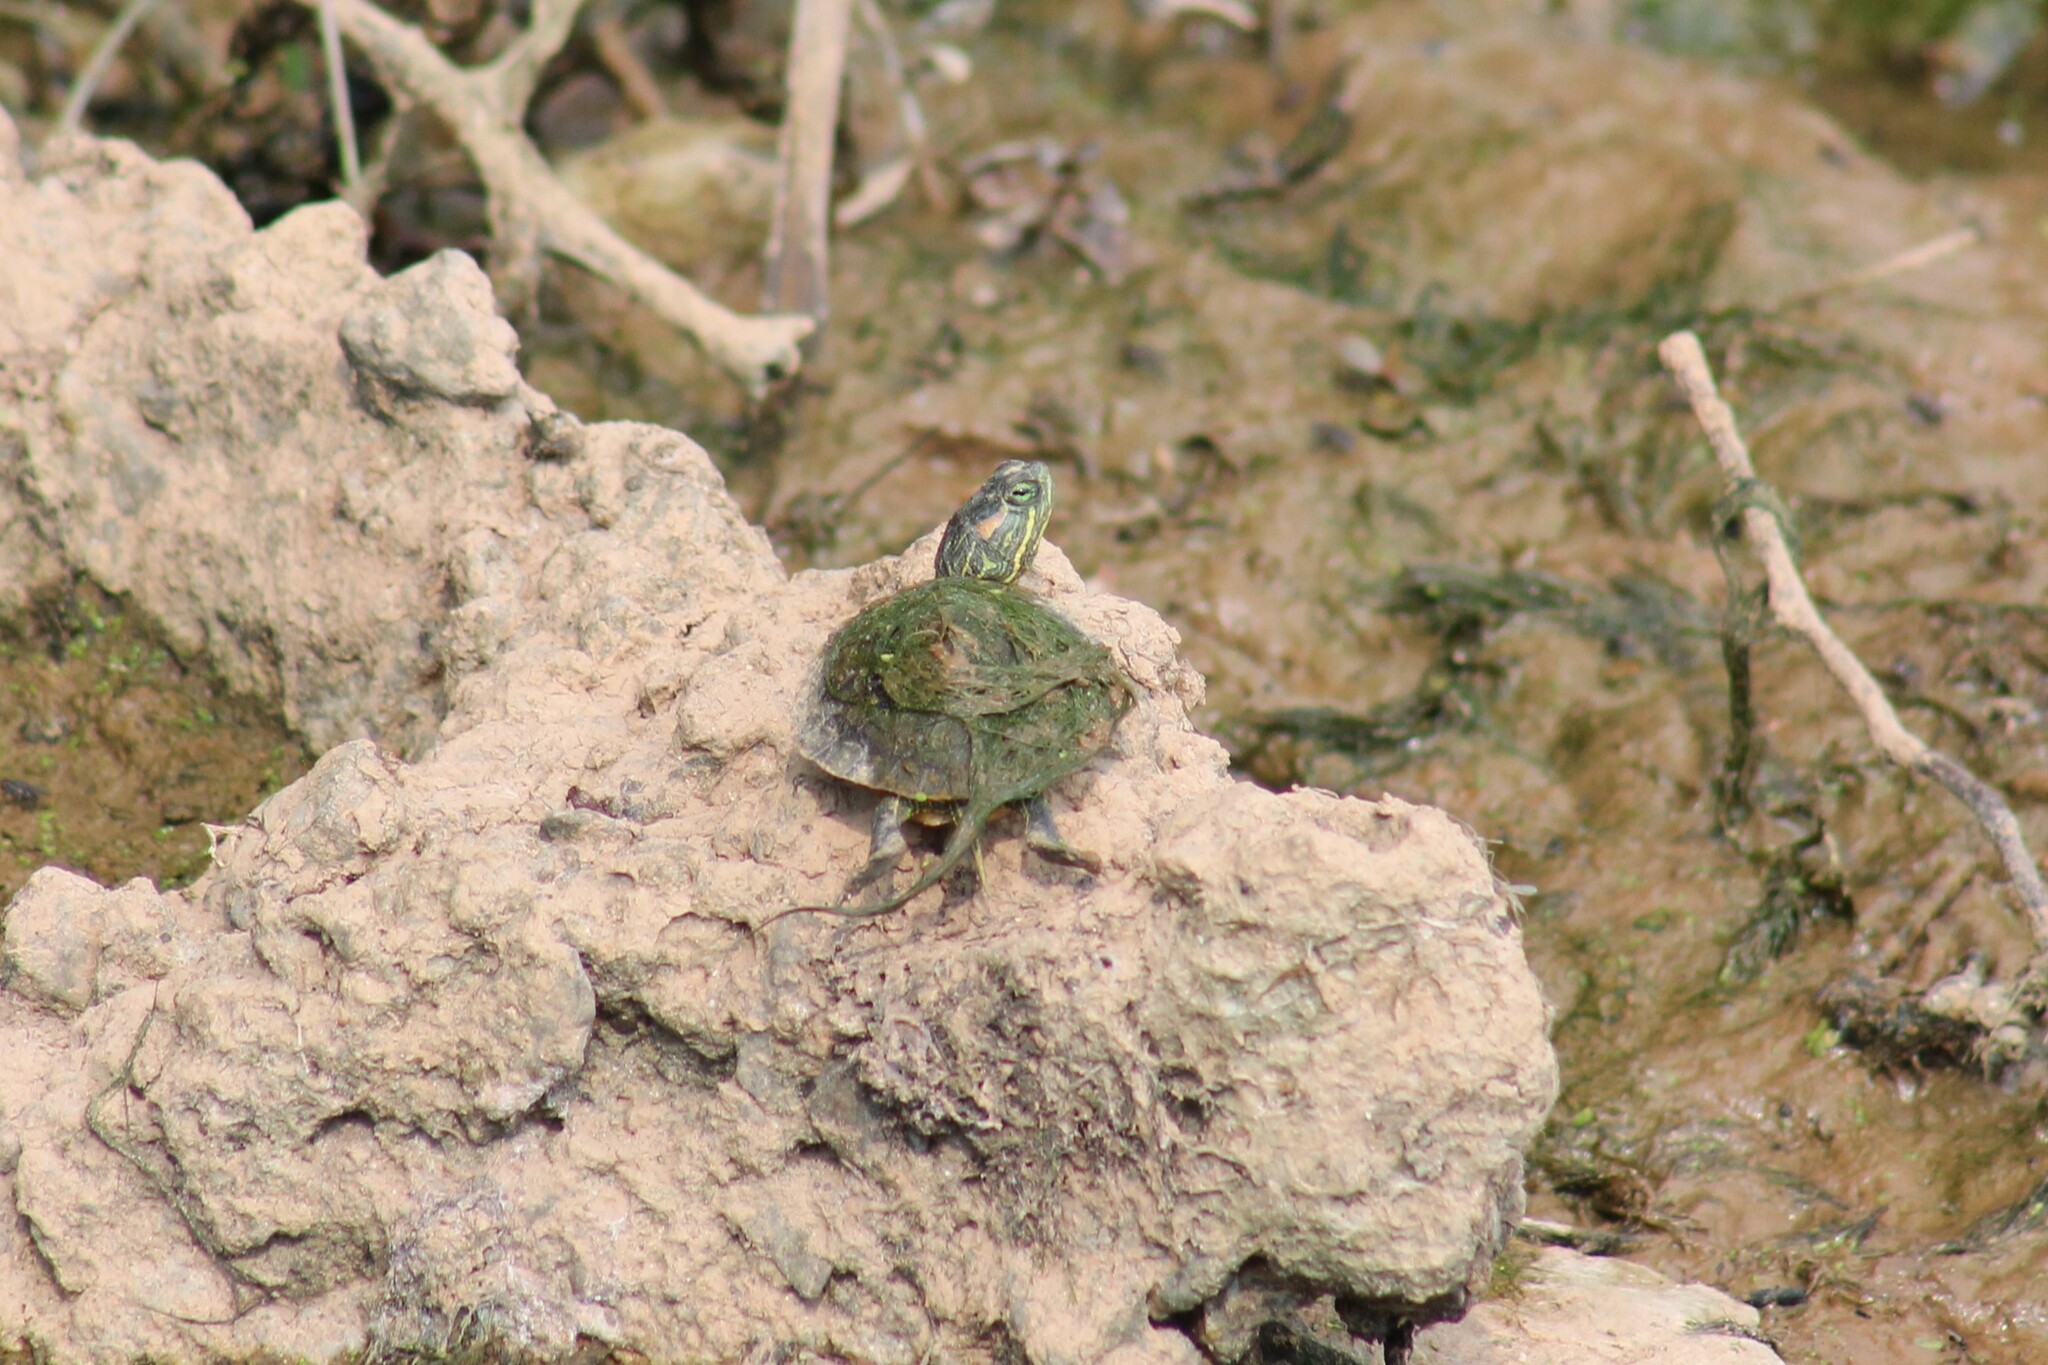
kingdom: Animalia
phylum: Chordata
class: Testudines
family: Emydidae
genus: Trachemys
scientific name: Trachemys scripta
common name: Slider
